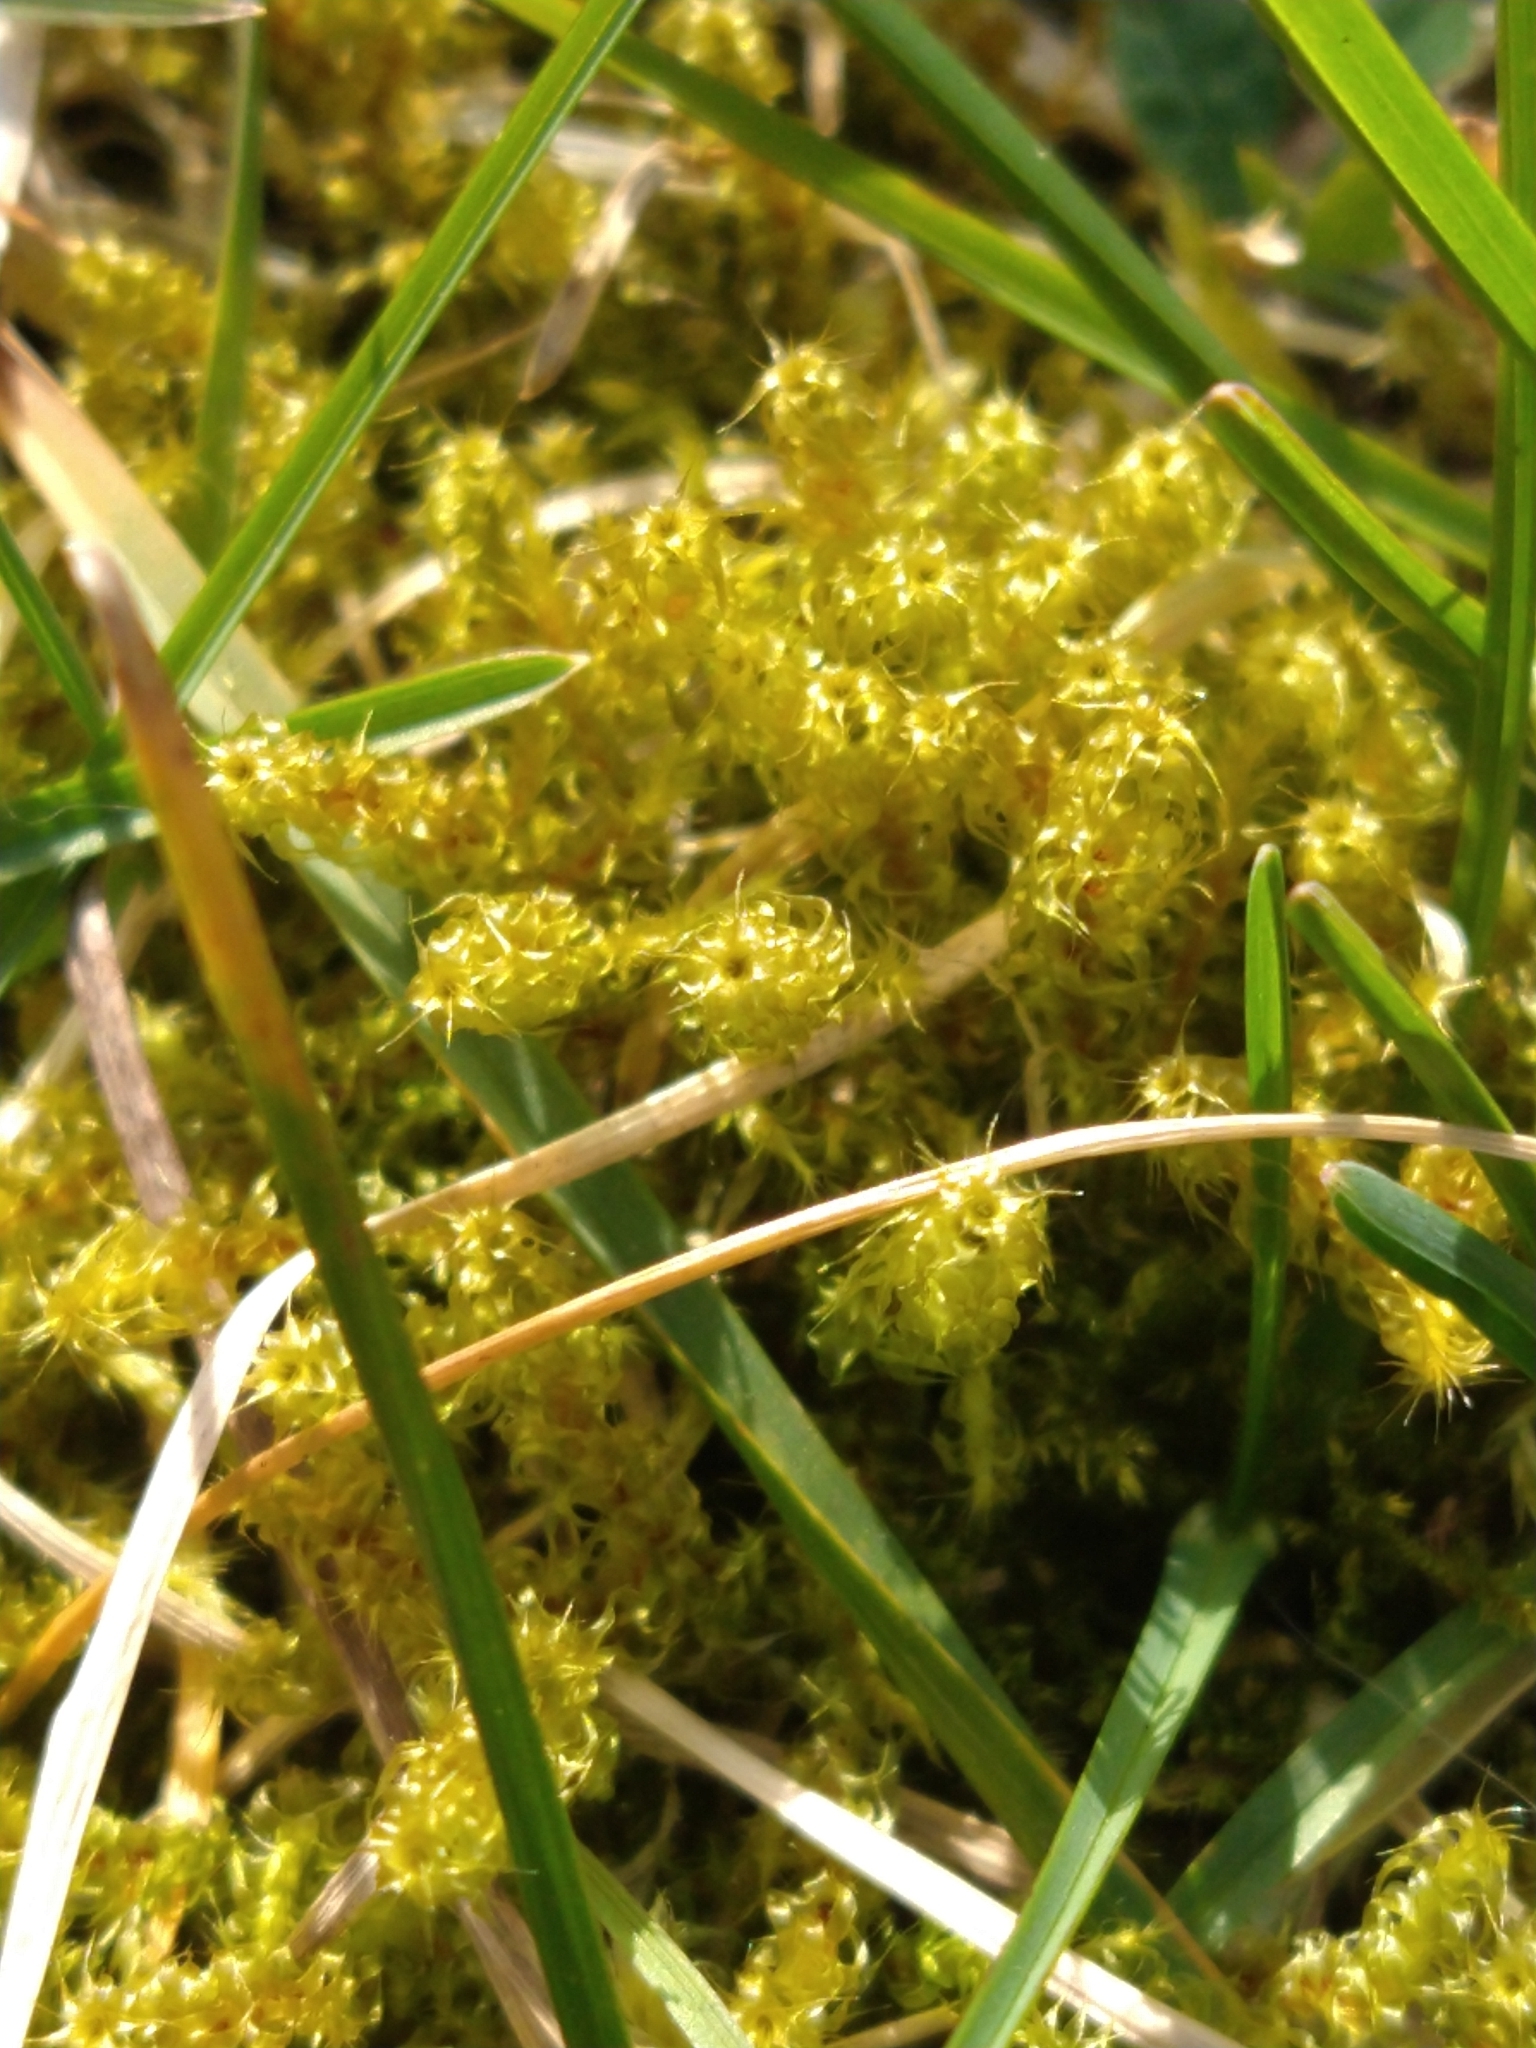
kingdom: Plantae
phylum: Bryophyta
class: Bryopsida
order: Hypnales
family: Hylocomiaceae
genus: Rhytidiadelphus
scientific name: Rhytidiadelphus squarrosus
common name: Springy turf-moss
